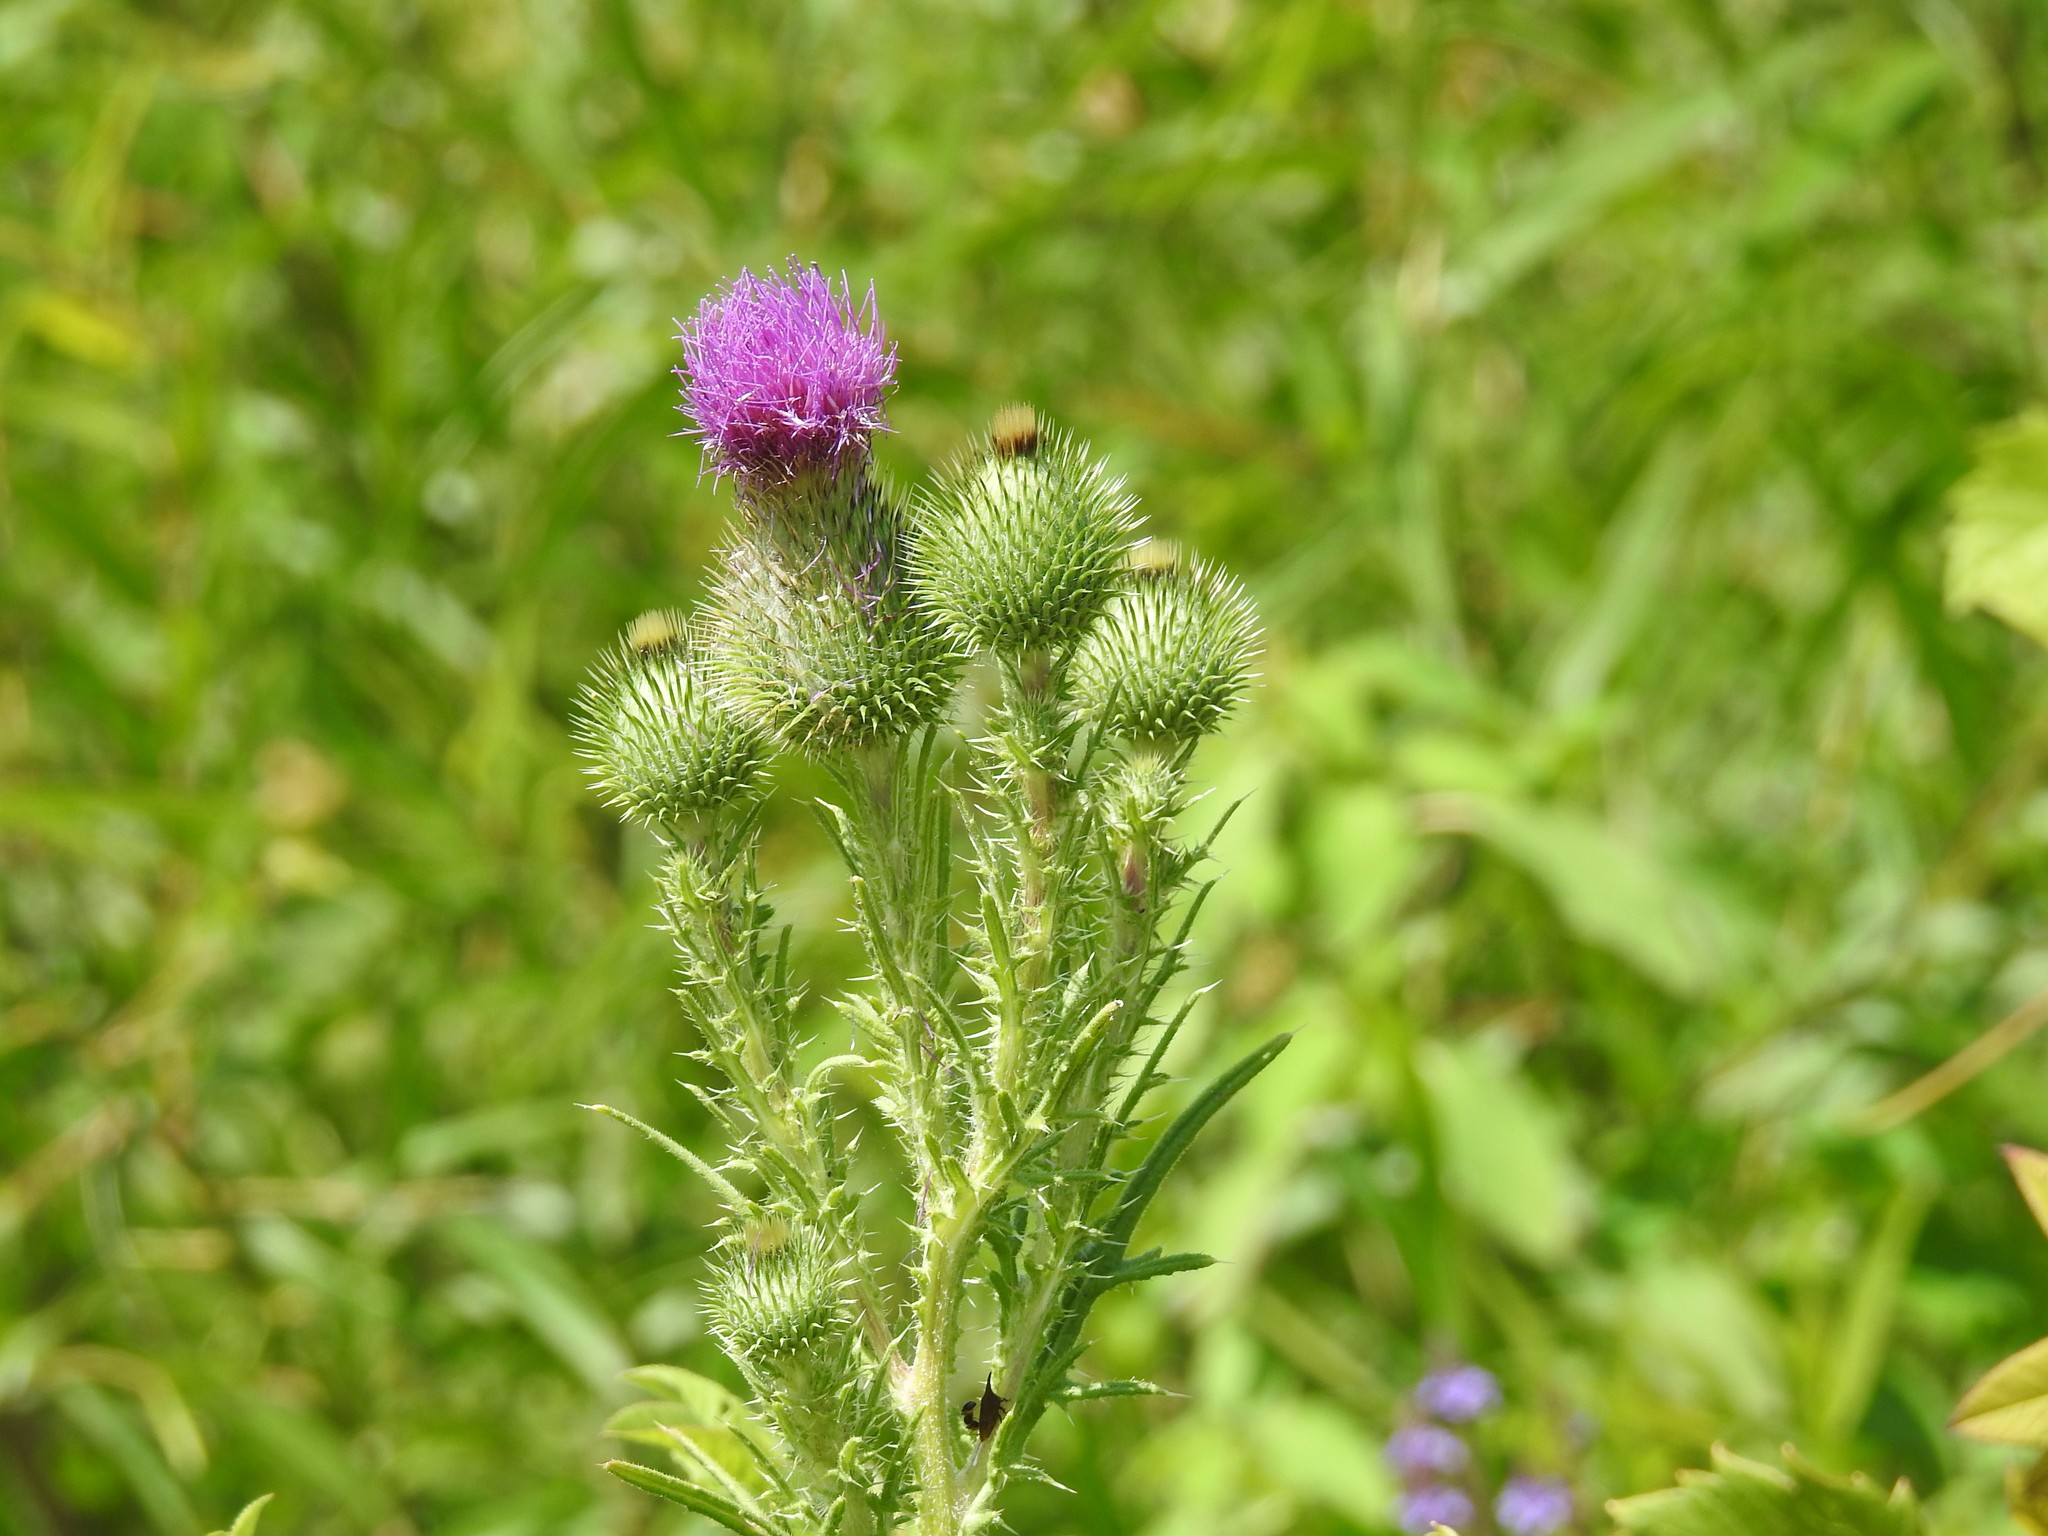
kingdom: Plantae
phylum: Tracheophyta
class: Magnoliopsida
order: Asterales
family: Asteraceae
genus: Cirsium
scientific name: Cirsium vulgare
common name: Bull thistle
